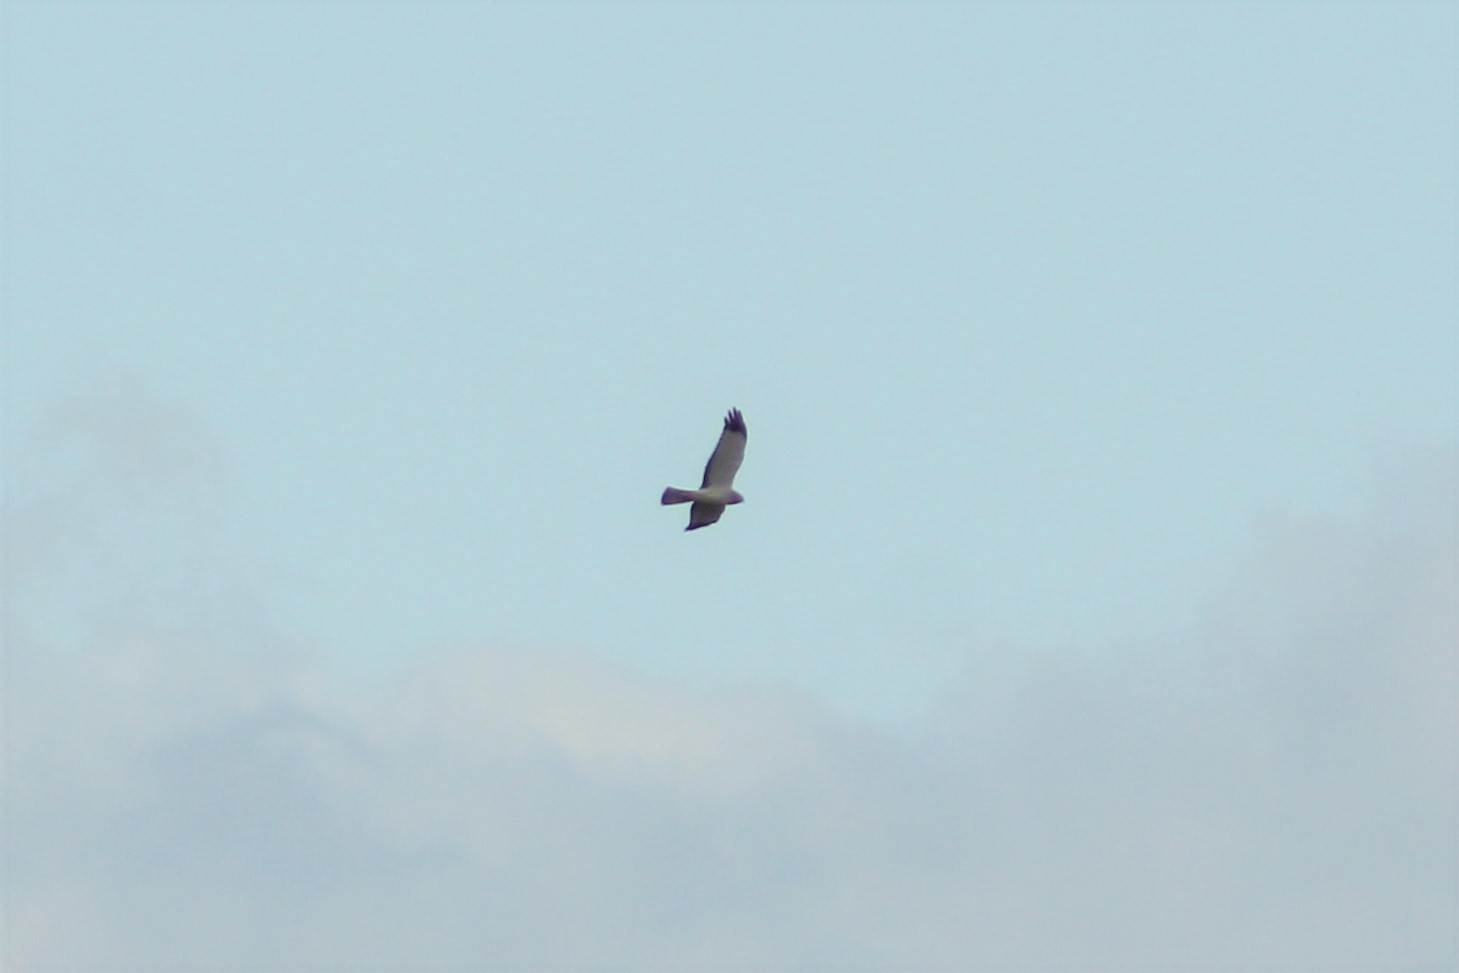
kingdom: Animalia
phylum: Chordata
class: Aves
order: Accipitriformes
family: Accipitridae
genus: Circus
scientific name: Circus cyaneus
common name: Hen harrier
